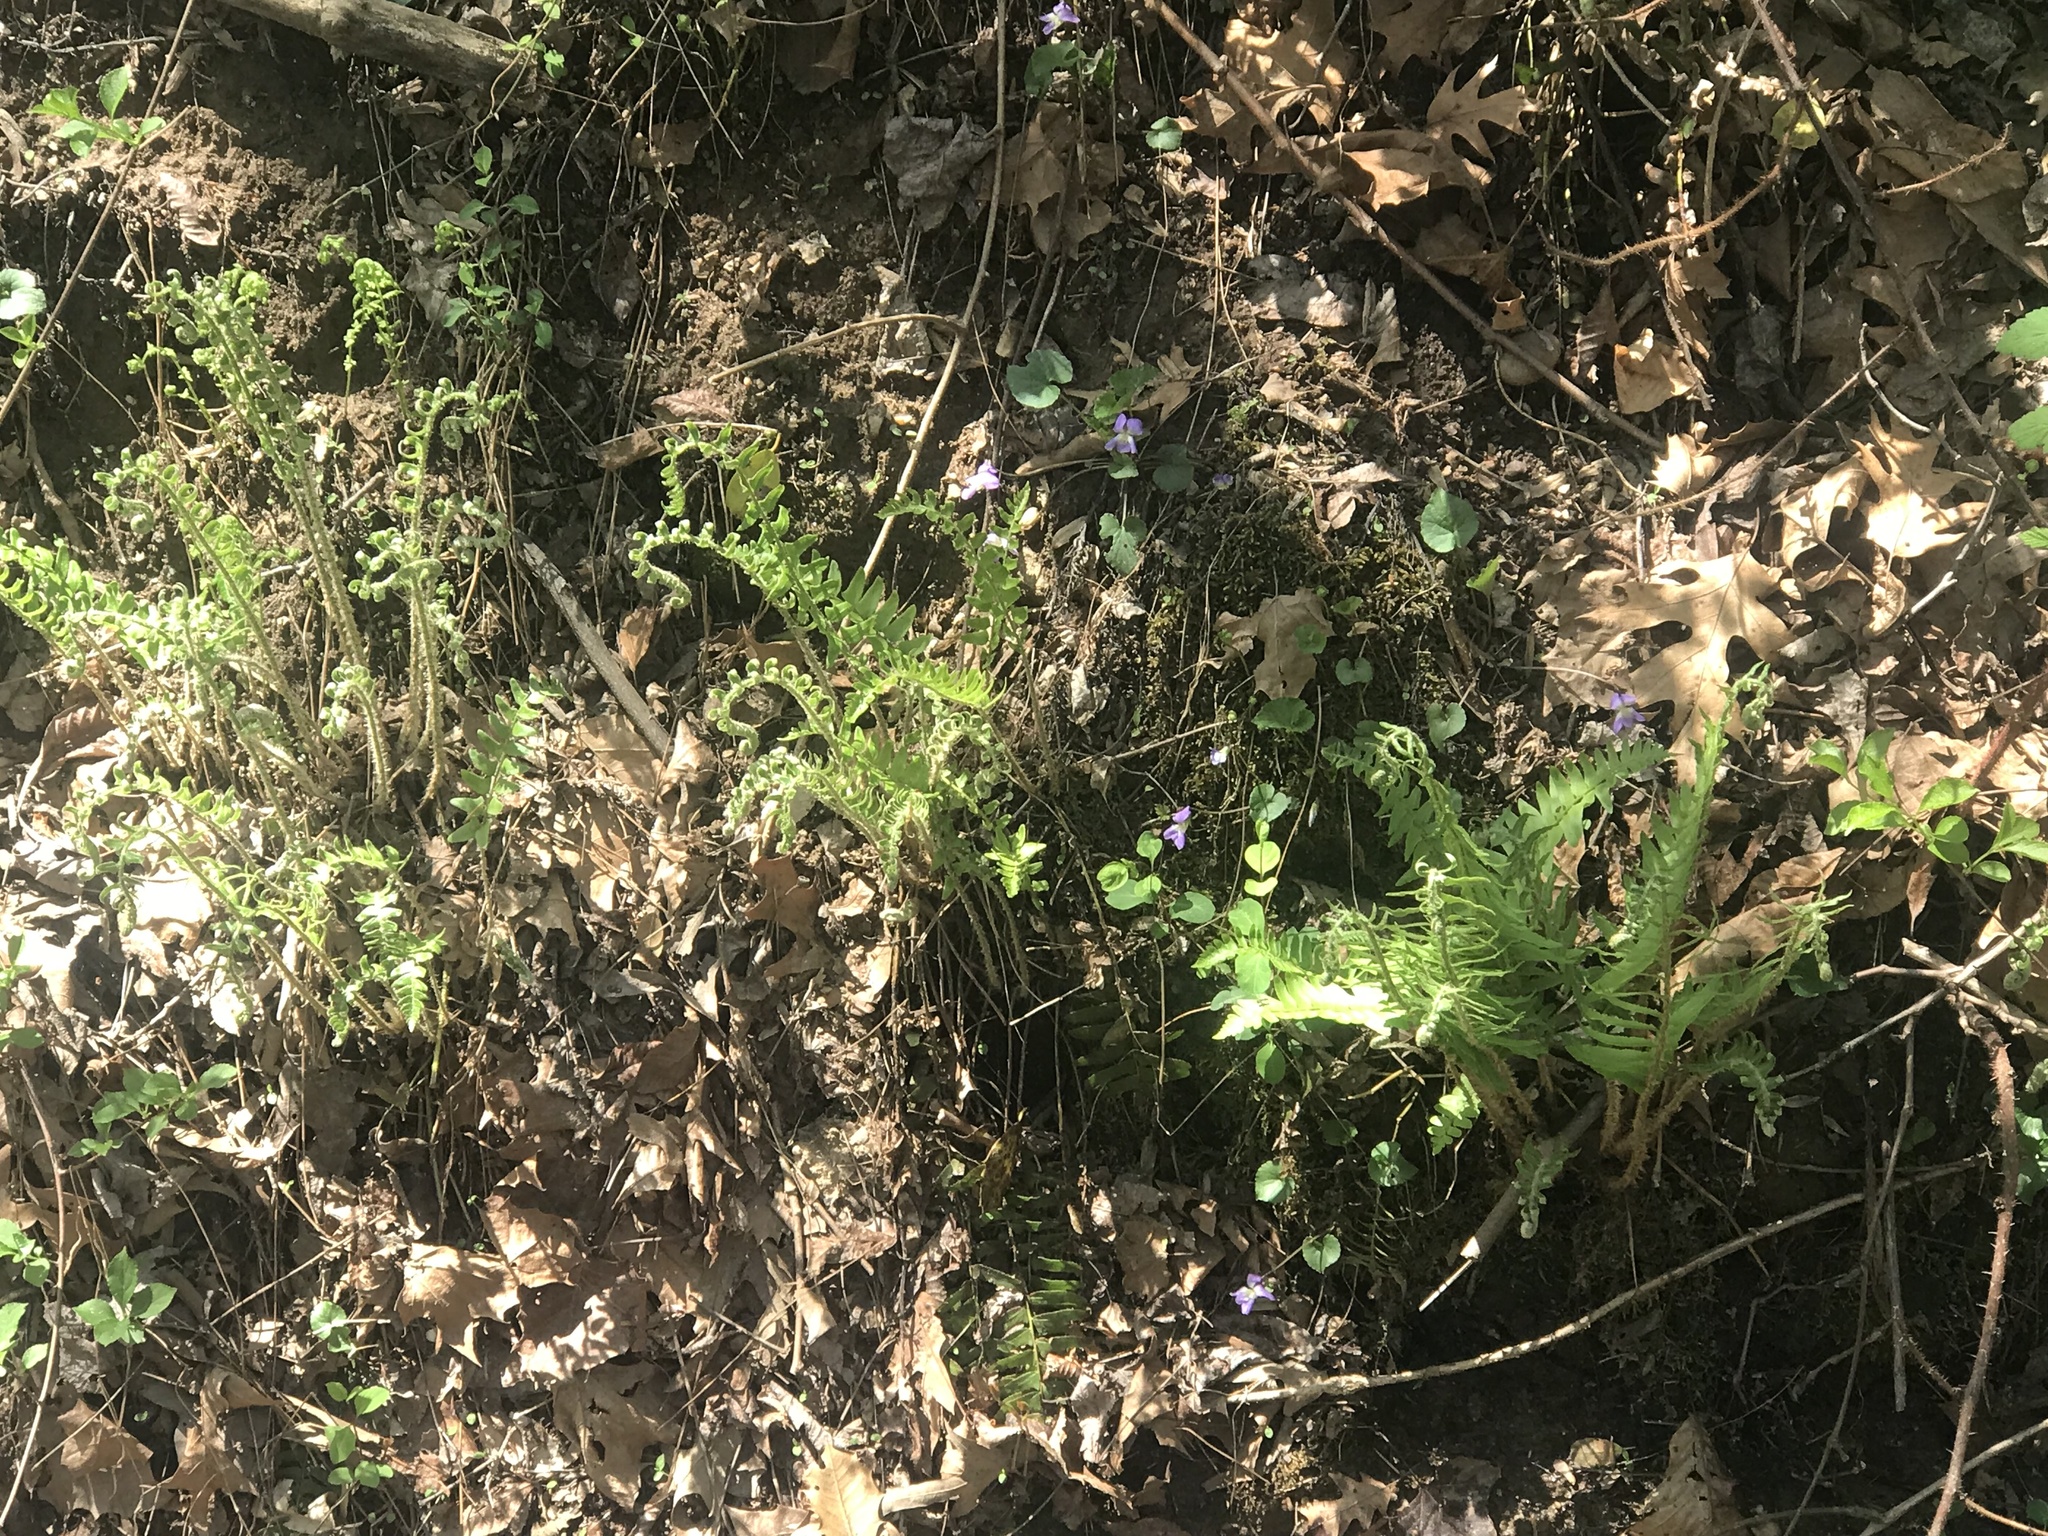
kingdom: Plantae
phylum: Tracheophyta
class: Polypodiopsida
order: Polypodiales
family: Dryopteridaceae
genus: Polystichum
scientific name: Polystichum acrostichoides
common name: Christmas fern
